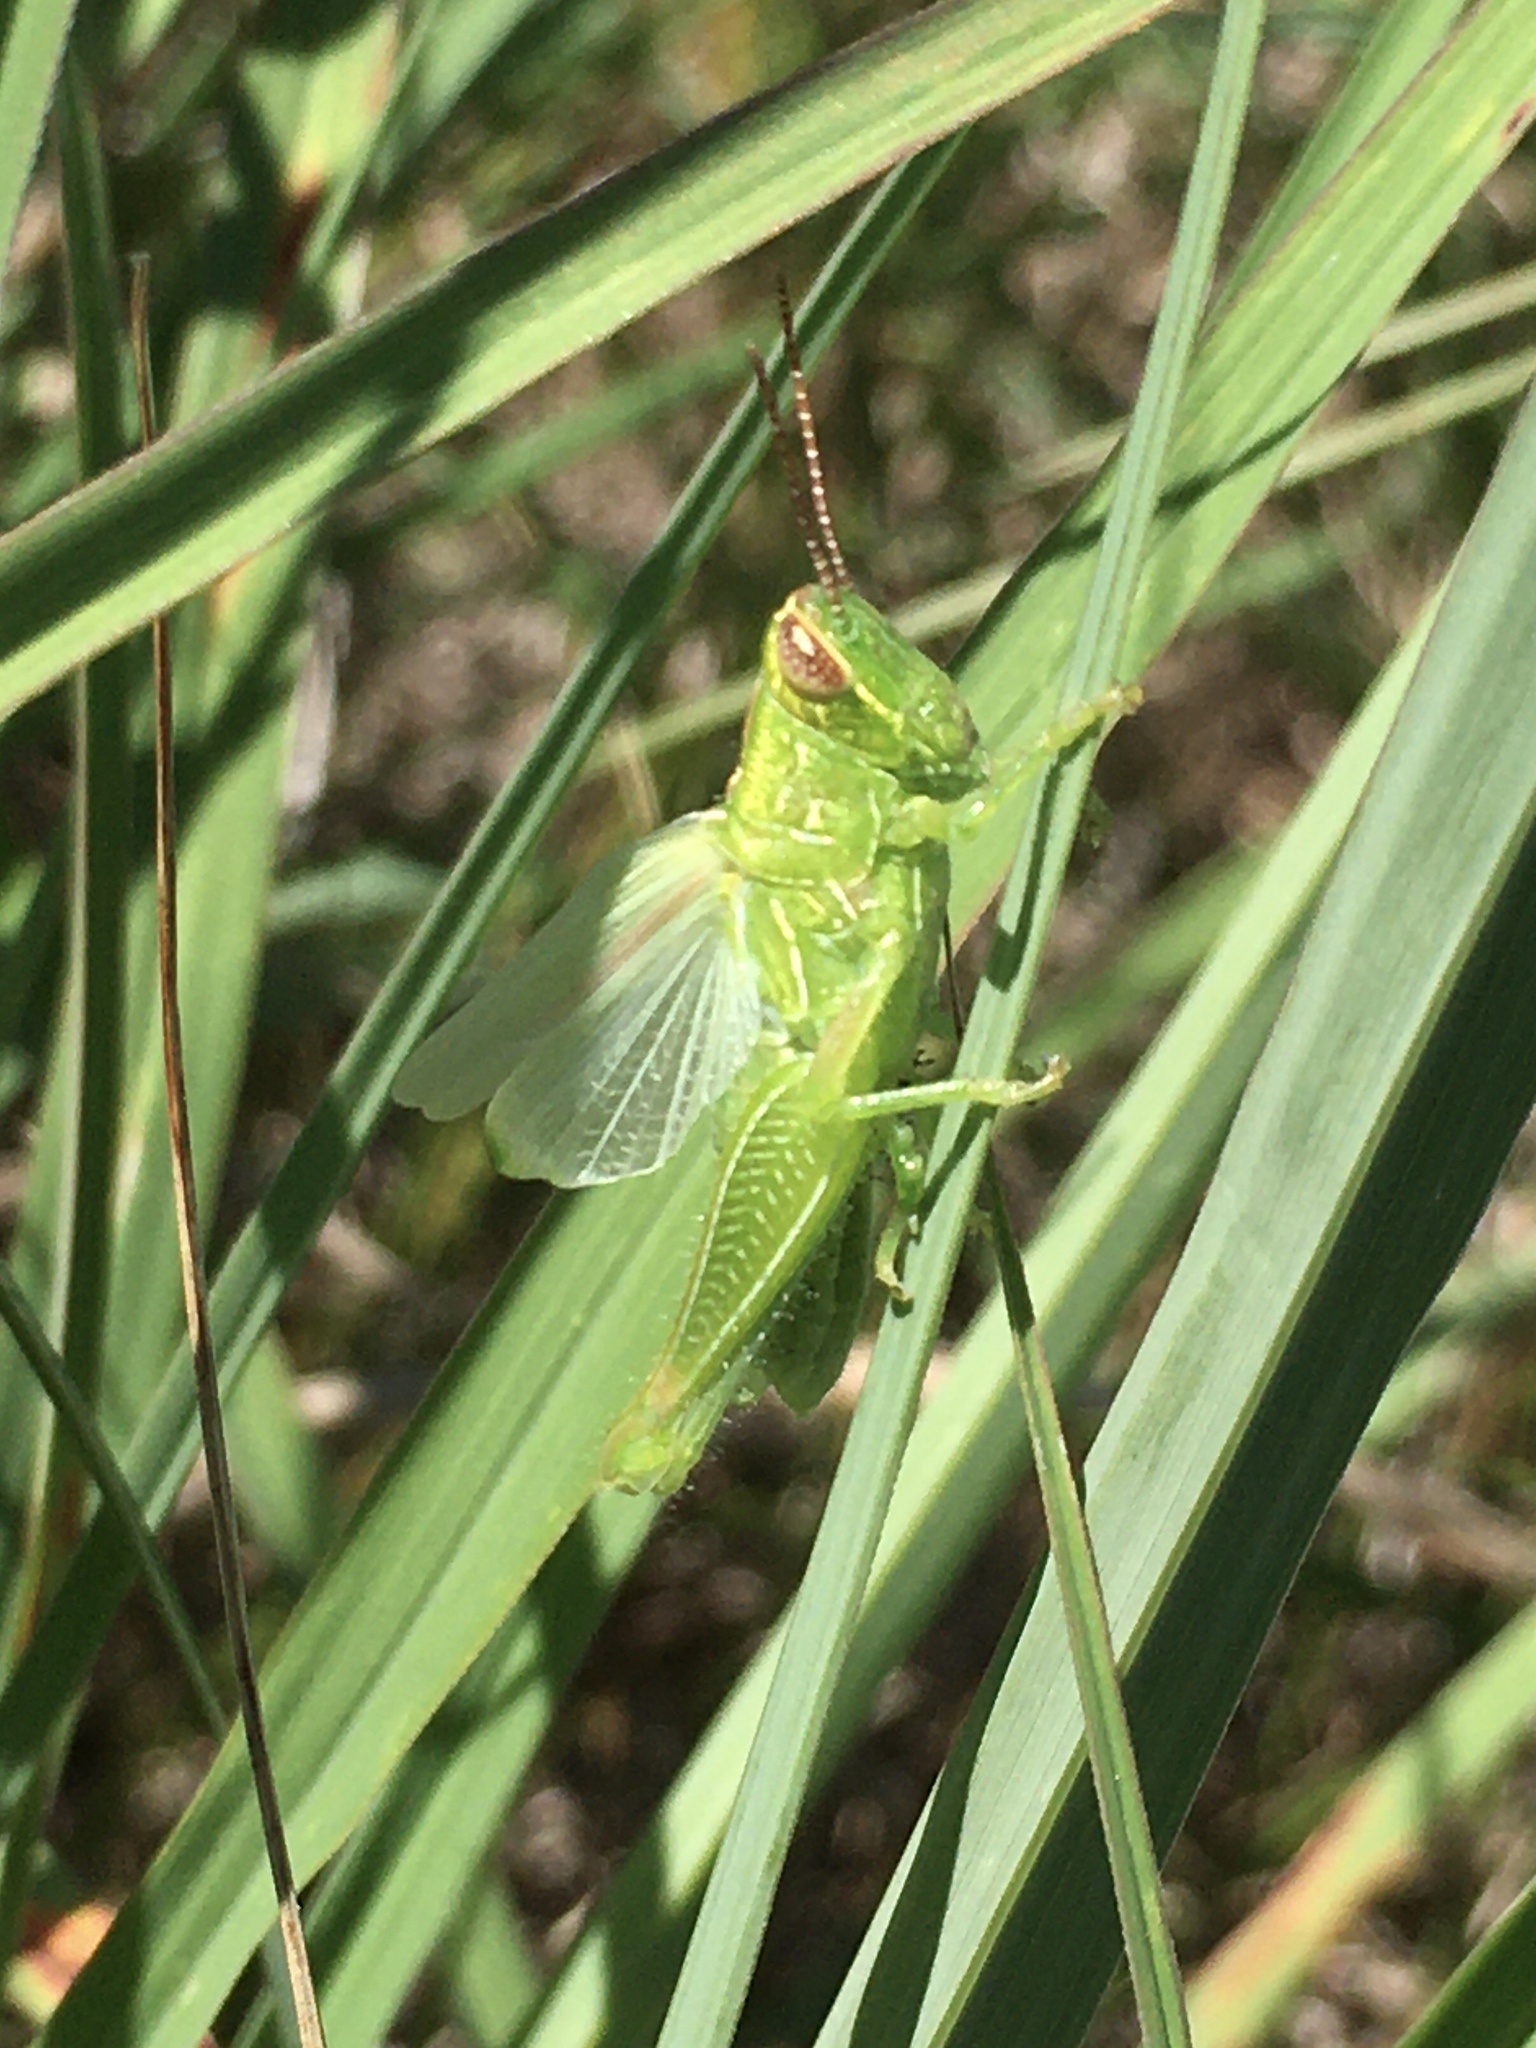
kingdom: Animalia
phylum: Arthropoda
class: Insecta
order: Orthoptera
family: Acrididae
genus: Hesperotettix
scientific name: Hesperotettix viridis
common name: Meadow purple-striped grasshopper
